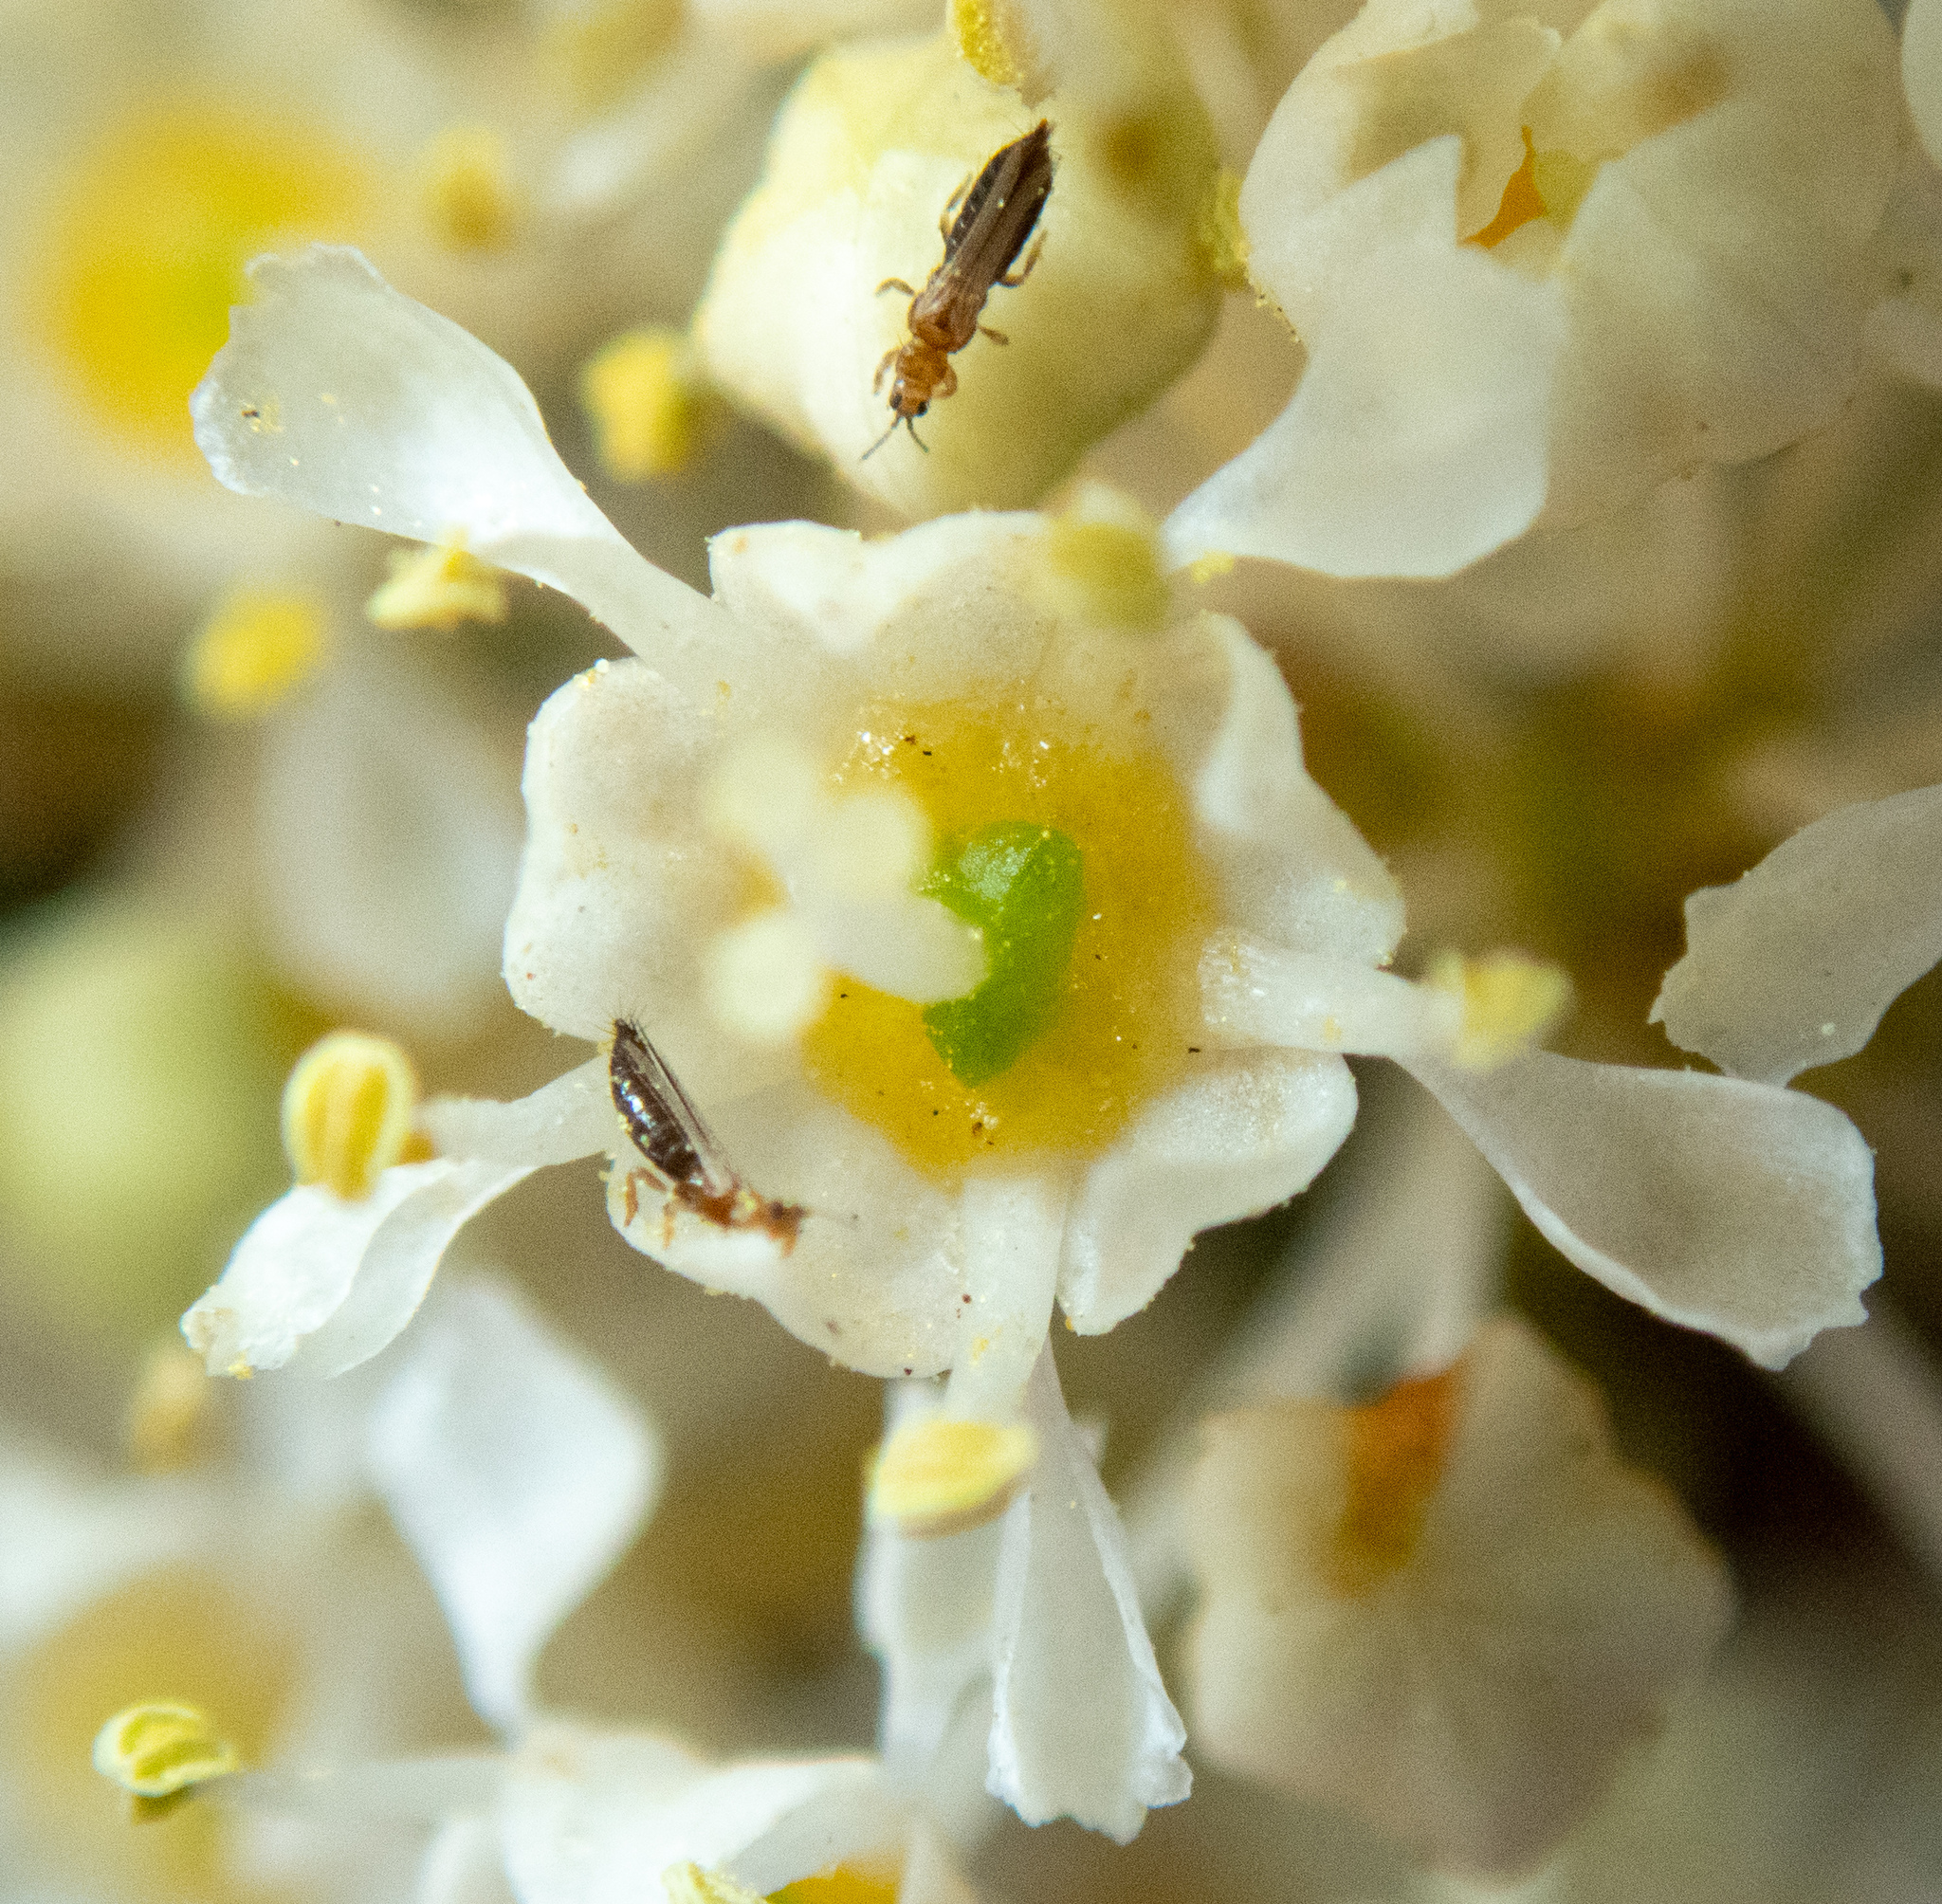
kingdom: Plantae
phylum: Tracheophyta
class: Magnoliopsida
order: Rosales
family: Rhamnaceae
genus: Ceanothus
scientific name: Ceanothus velutinus
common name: Snowbrush
